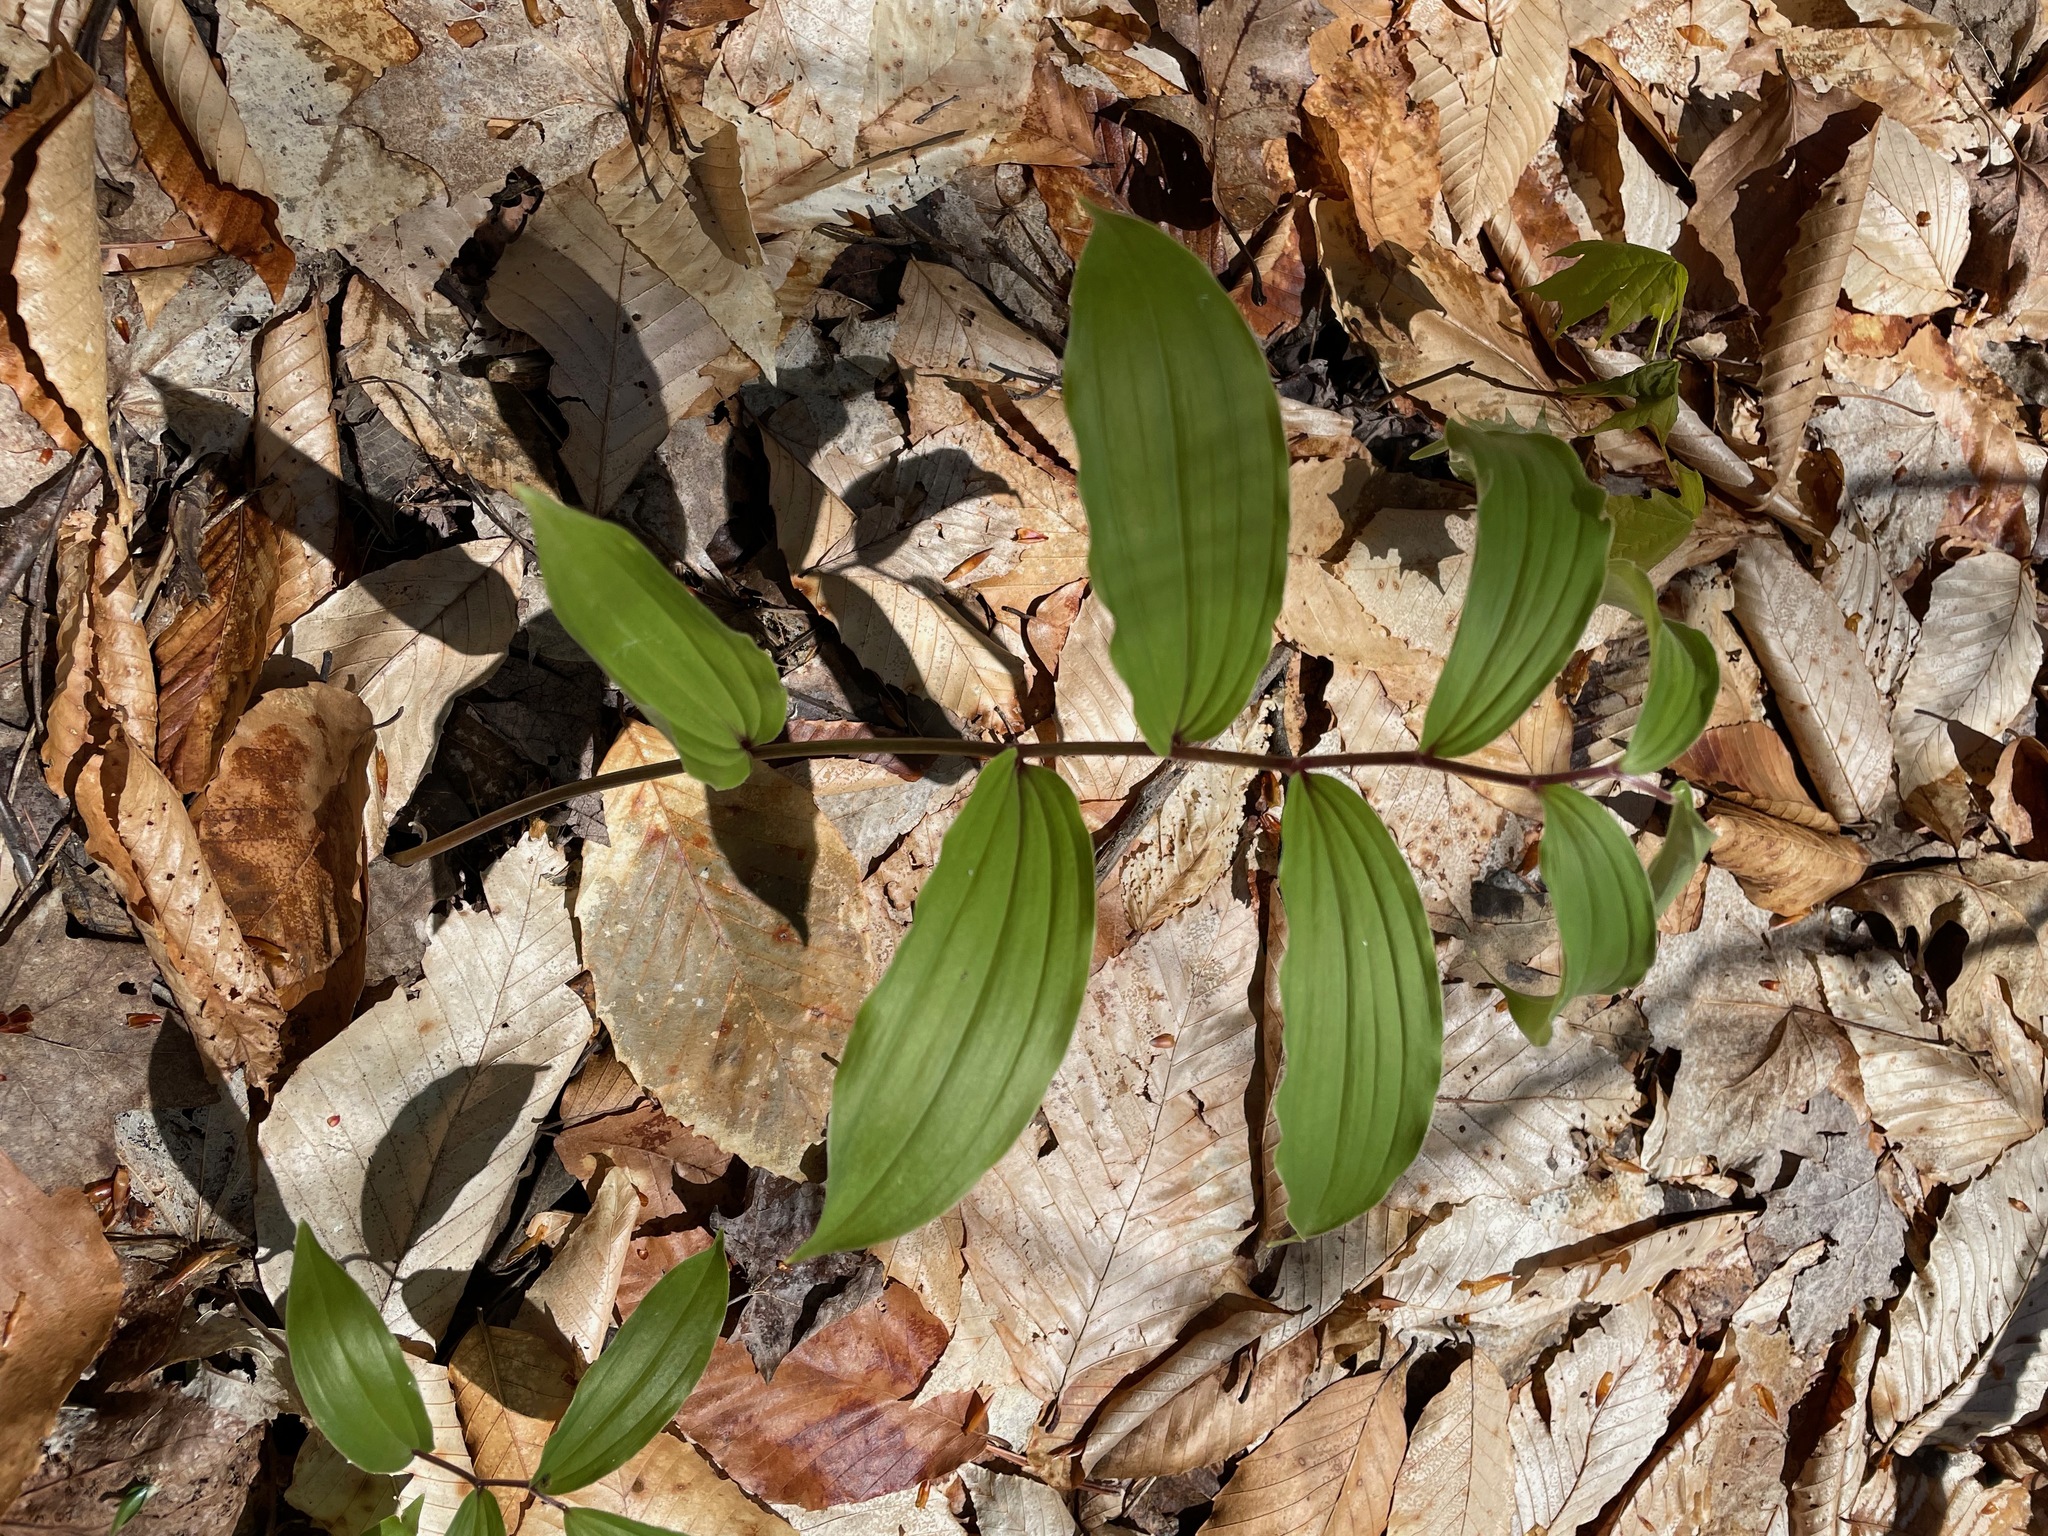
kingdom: Plantae
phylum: Tracheophyta
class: Liliopsida
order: Asparagales
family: Asparagaceae
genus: Maianthemum
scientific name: Maianthemum racemosum
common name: False spikenard
